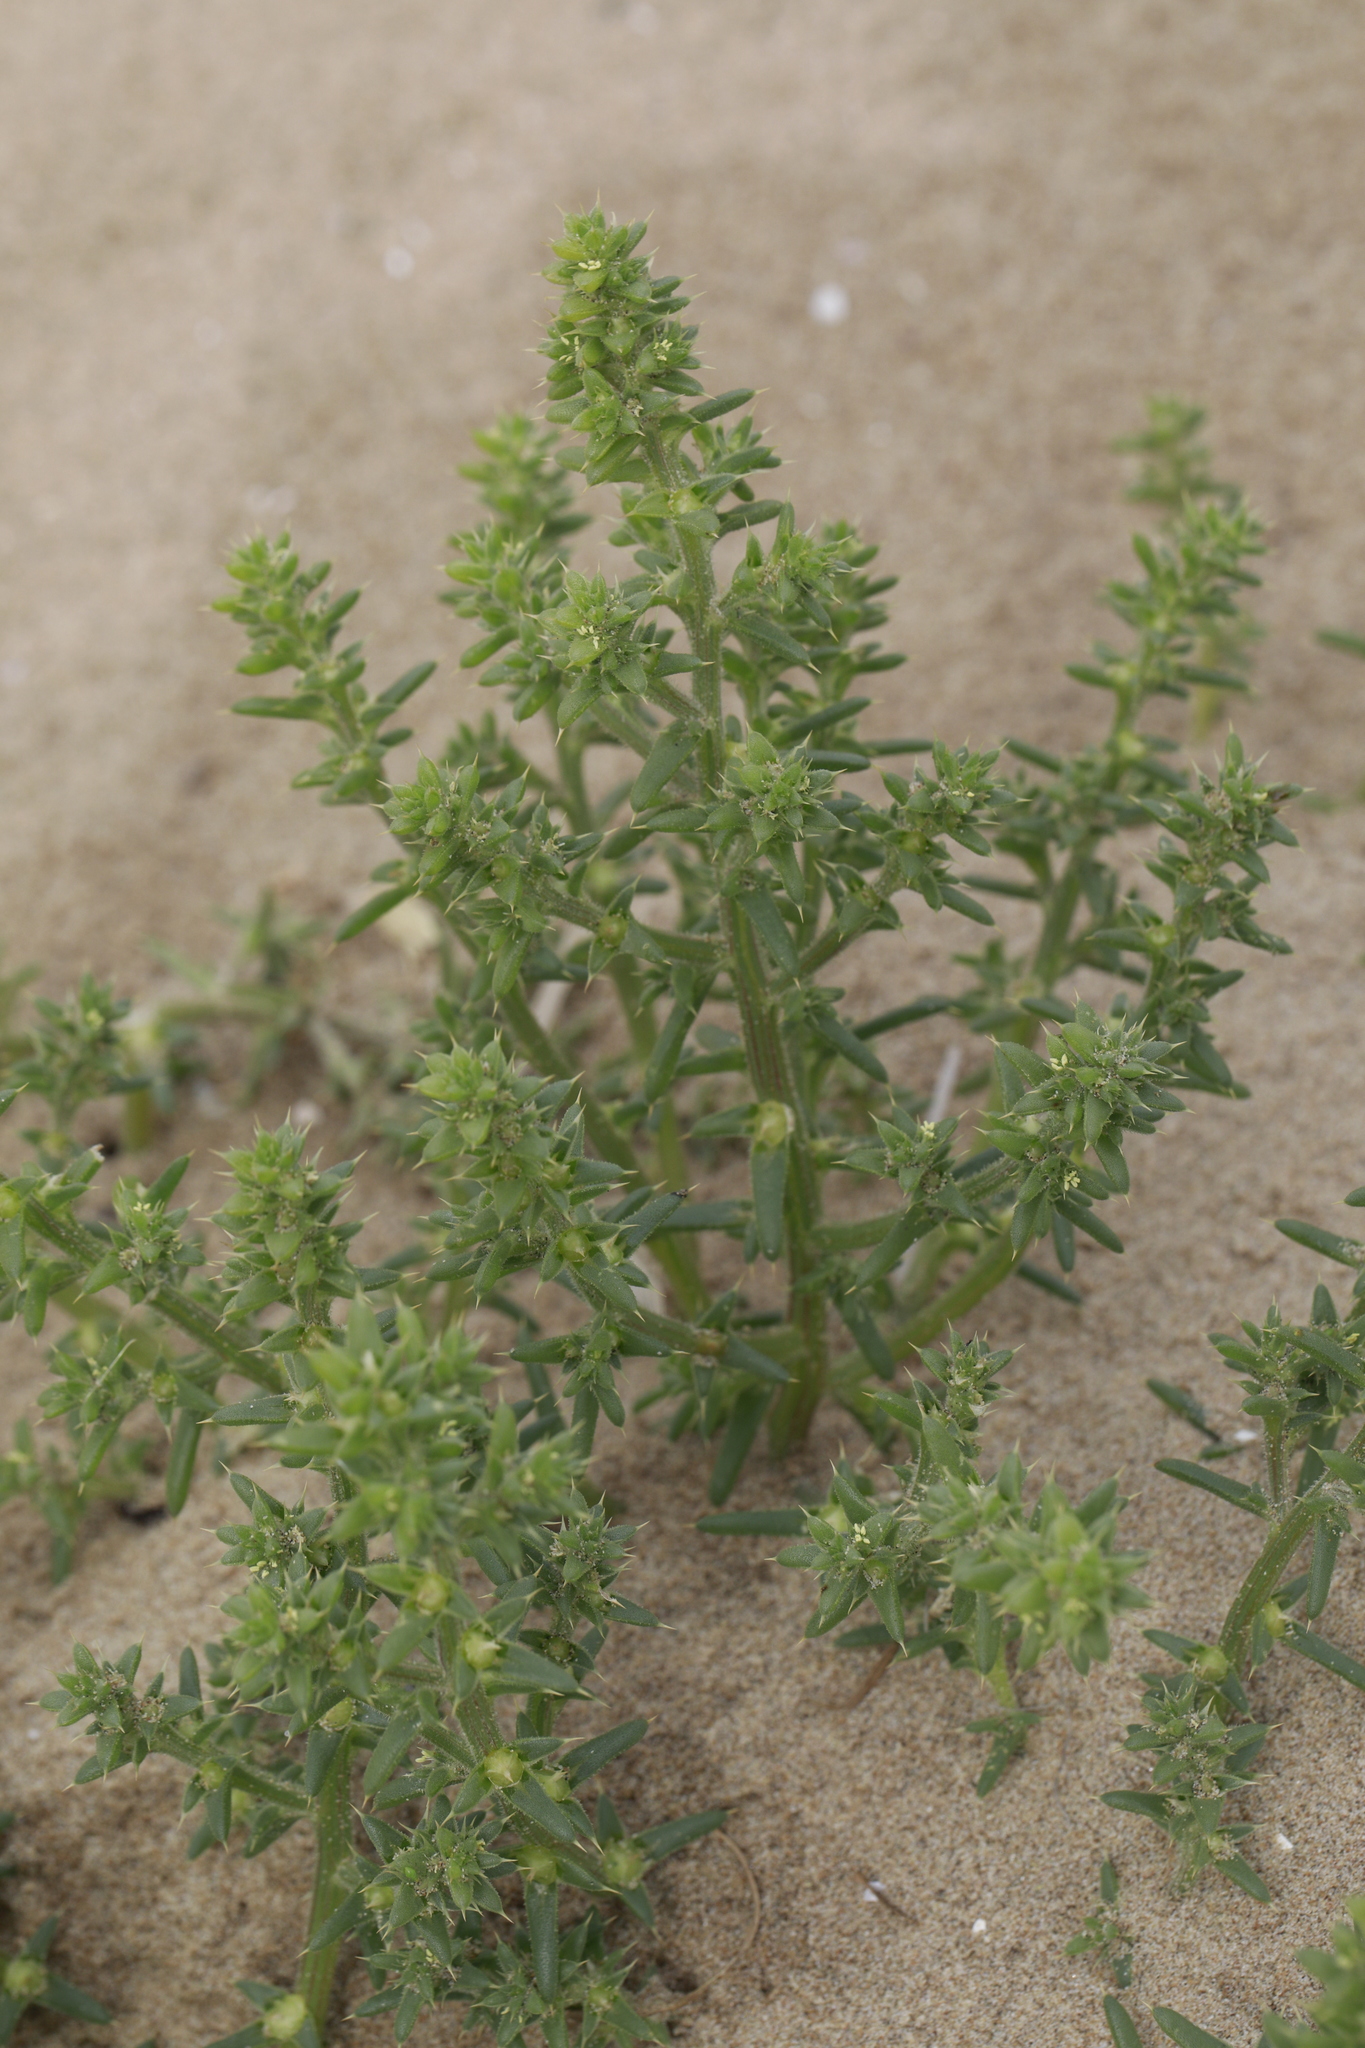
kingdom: Plantae
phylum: Tracheophyta
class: Magnoliopsida
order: Caryophyllales
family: Amaranthaceae
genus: Salsola
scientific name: Salsola kali
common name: Saltwort
